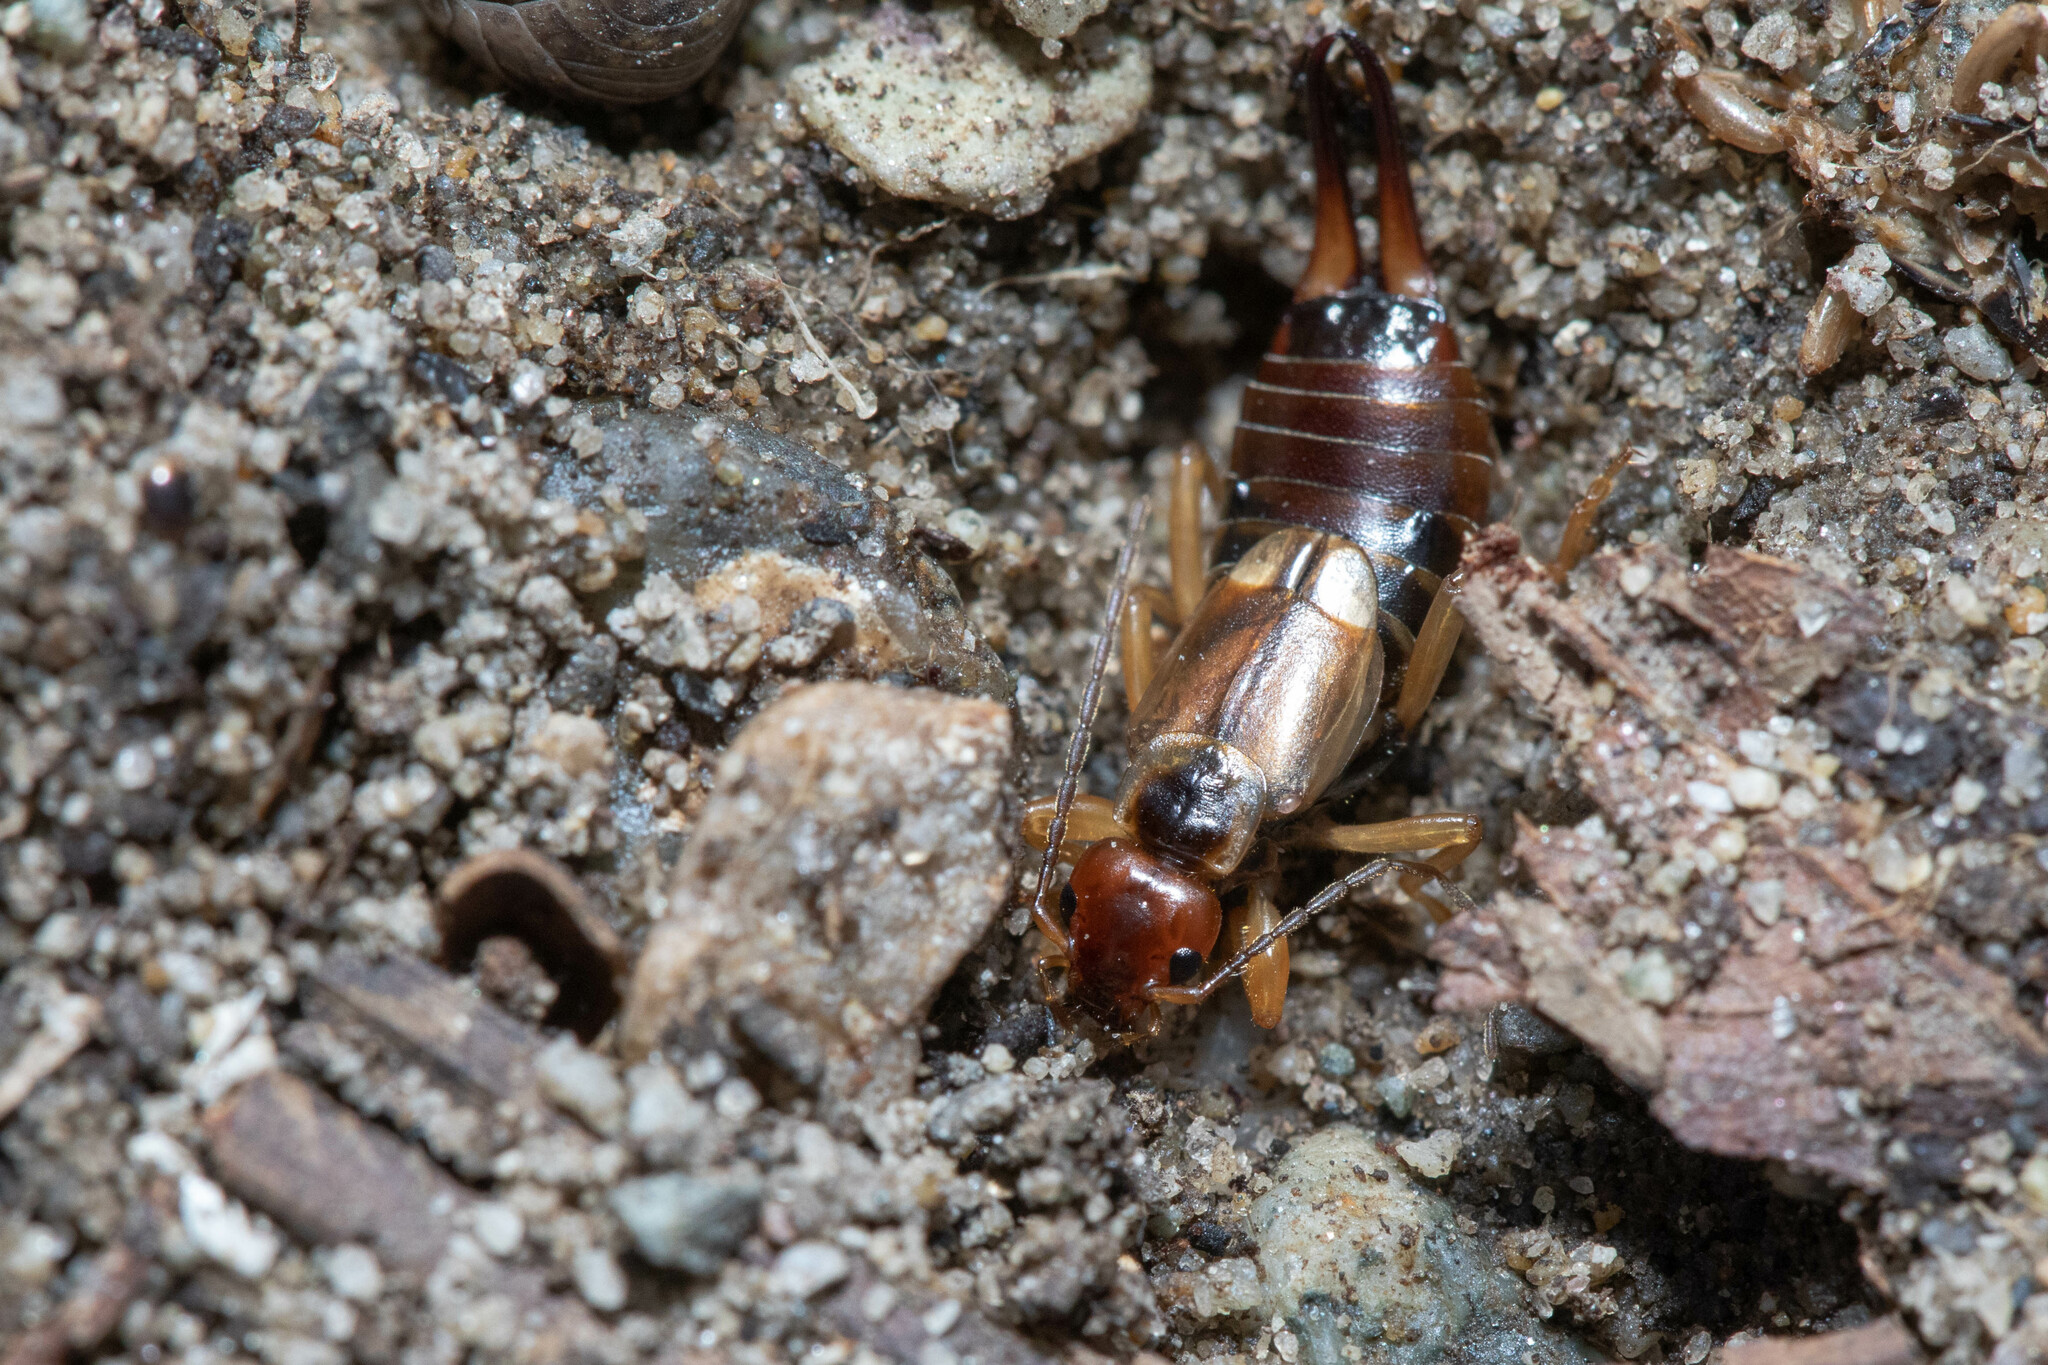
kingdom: Animalia
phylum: Arthropoda
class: Insecta
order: Dermaptera
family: Forficulidae
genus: Forficula
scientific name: Forficula dentata
